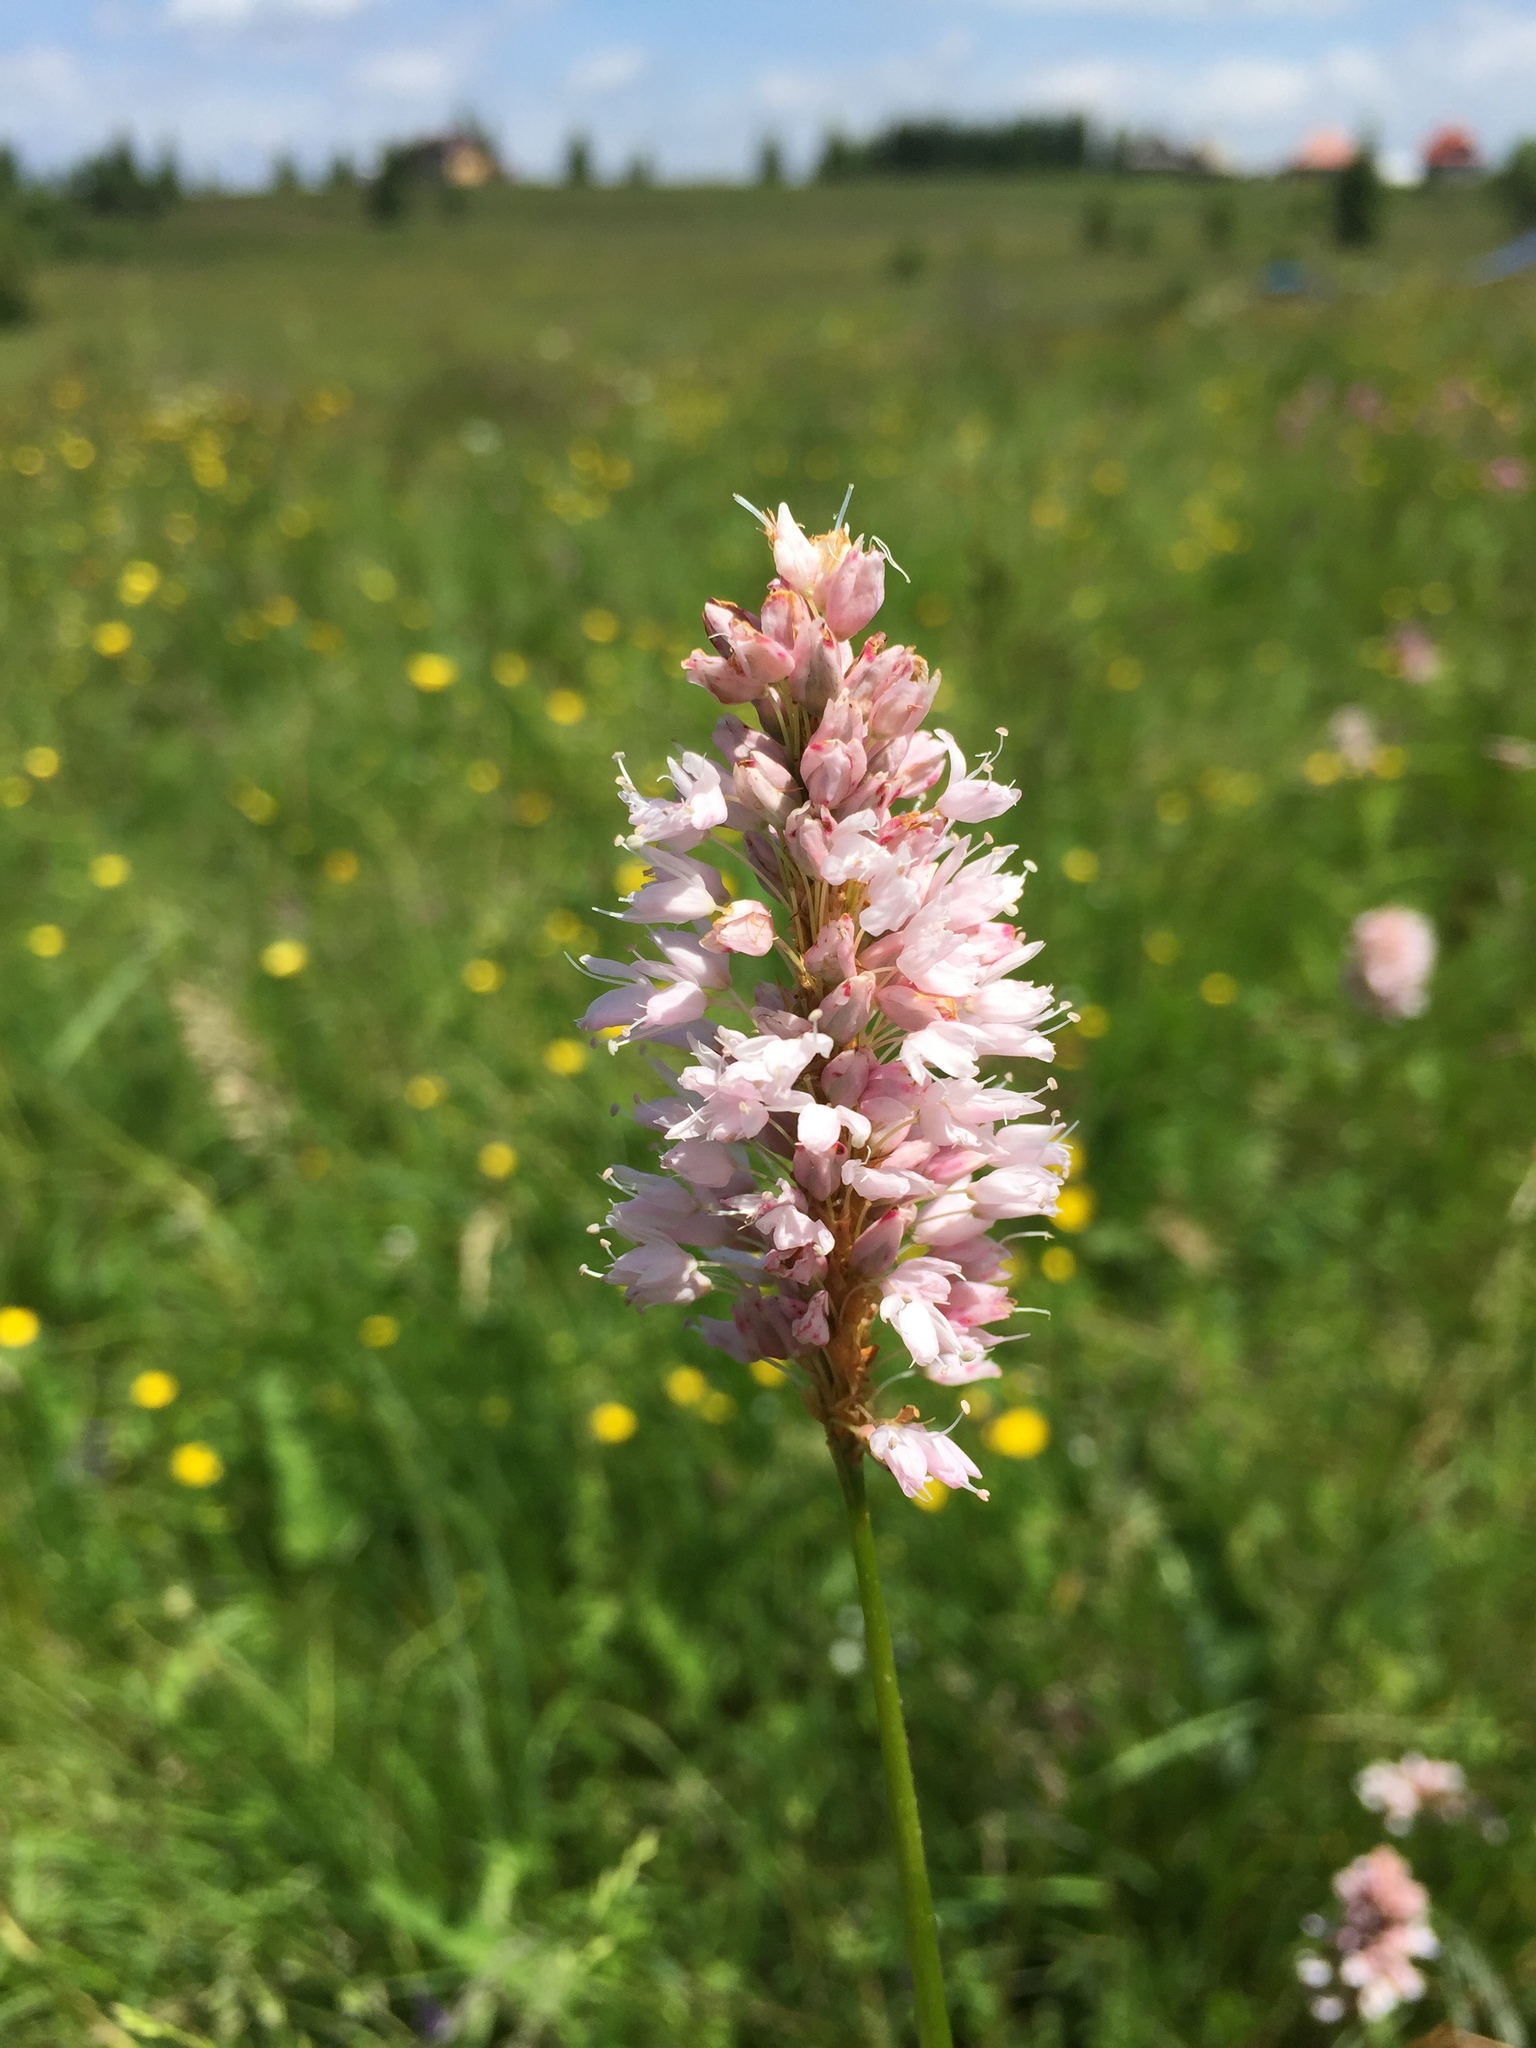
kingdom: Plantae
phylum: Tracheophyta
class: Magnoliopsida
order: Caryophyllales
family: Polygonaceae
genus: Bistorta
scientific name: Bistorta officinalis
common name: Common bistort
